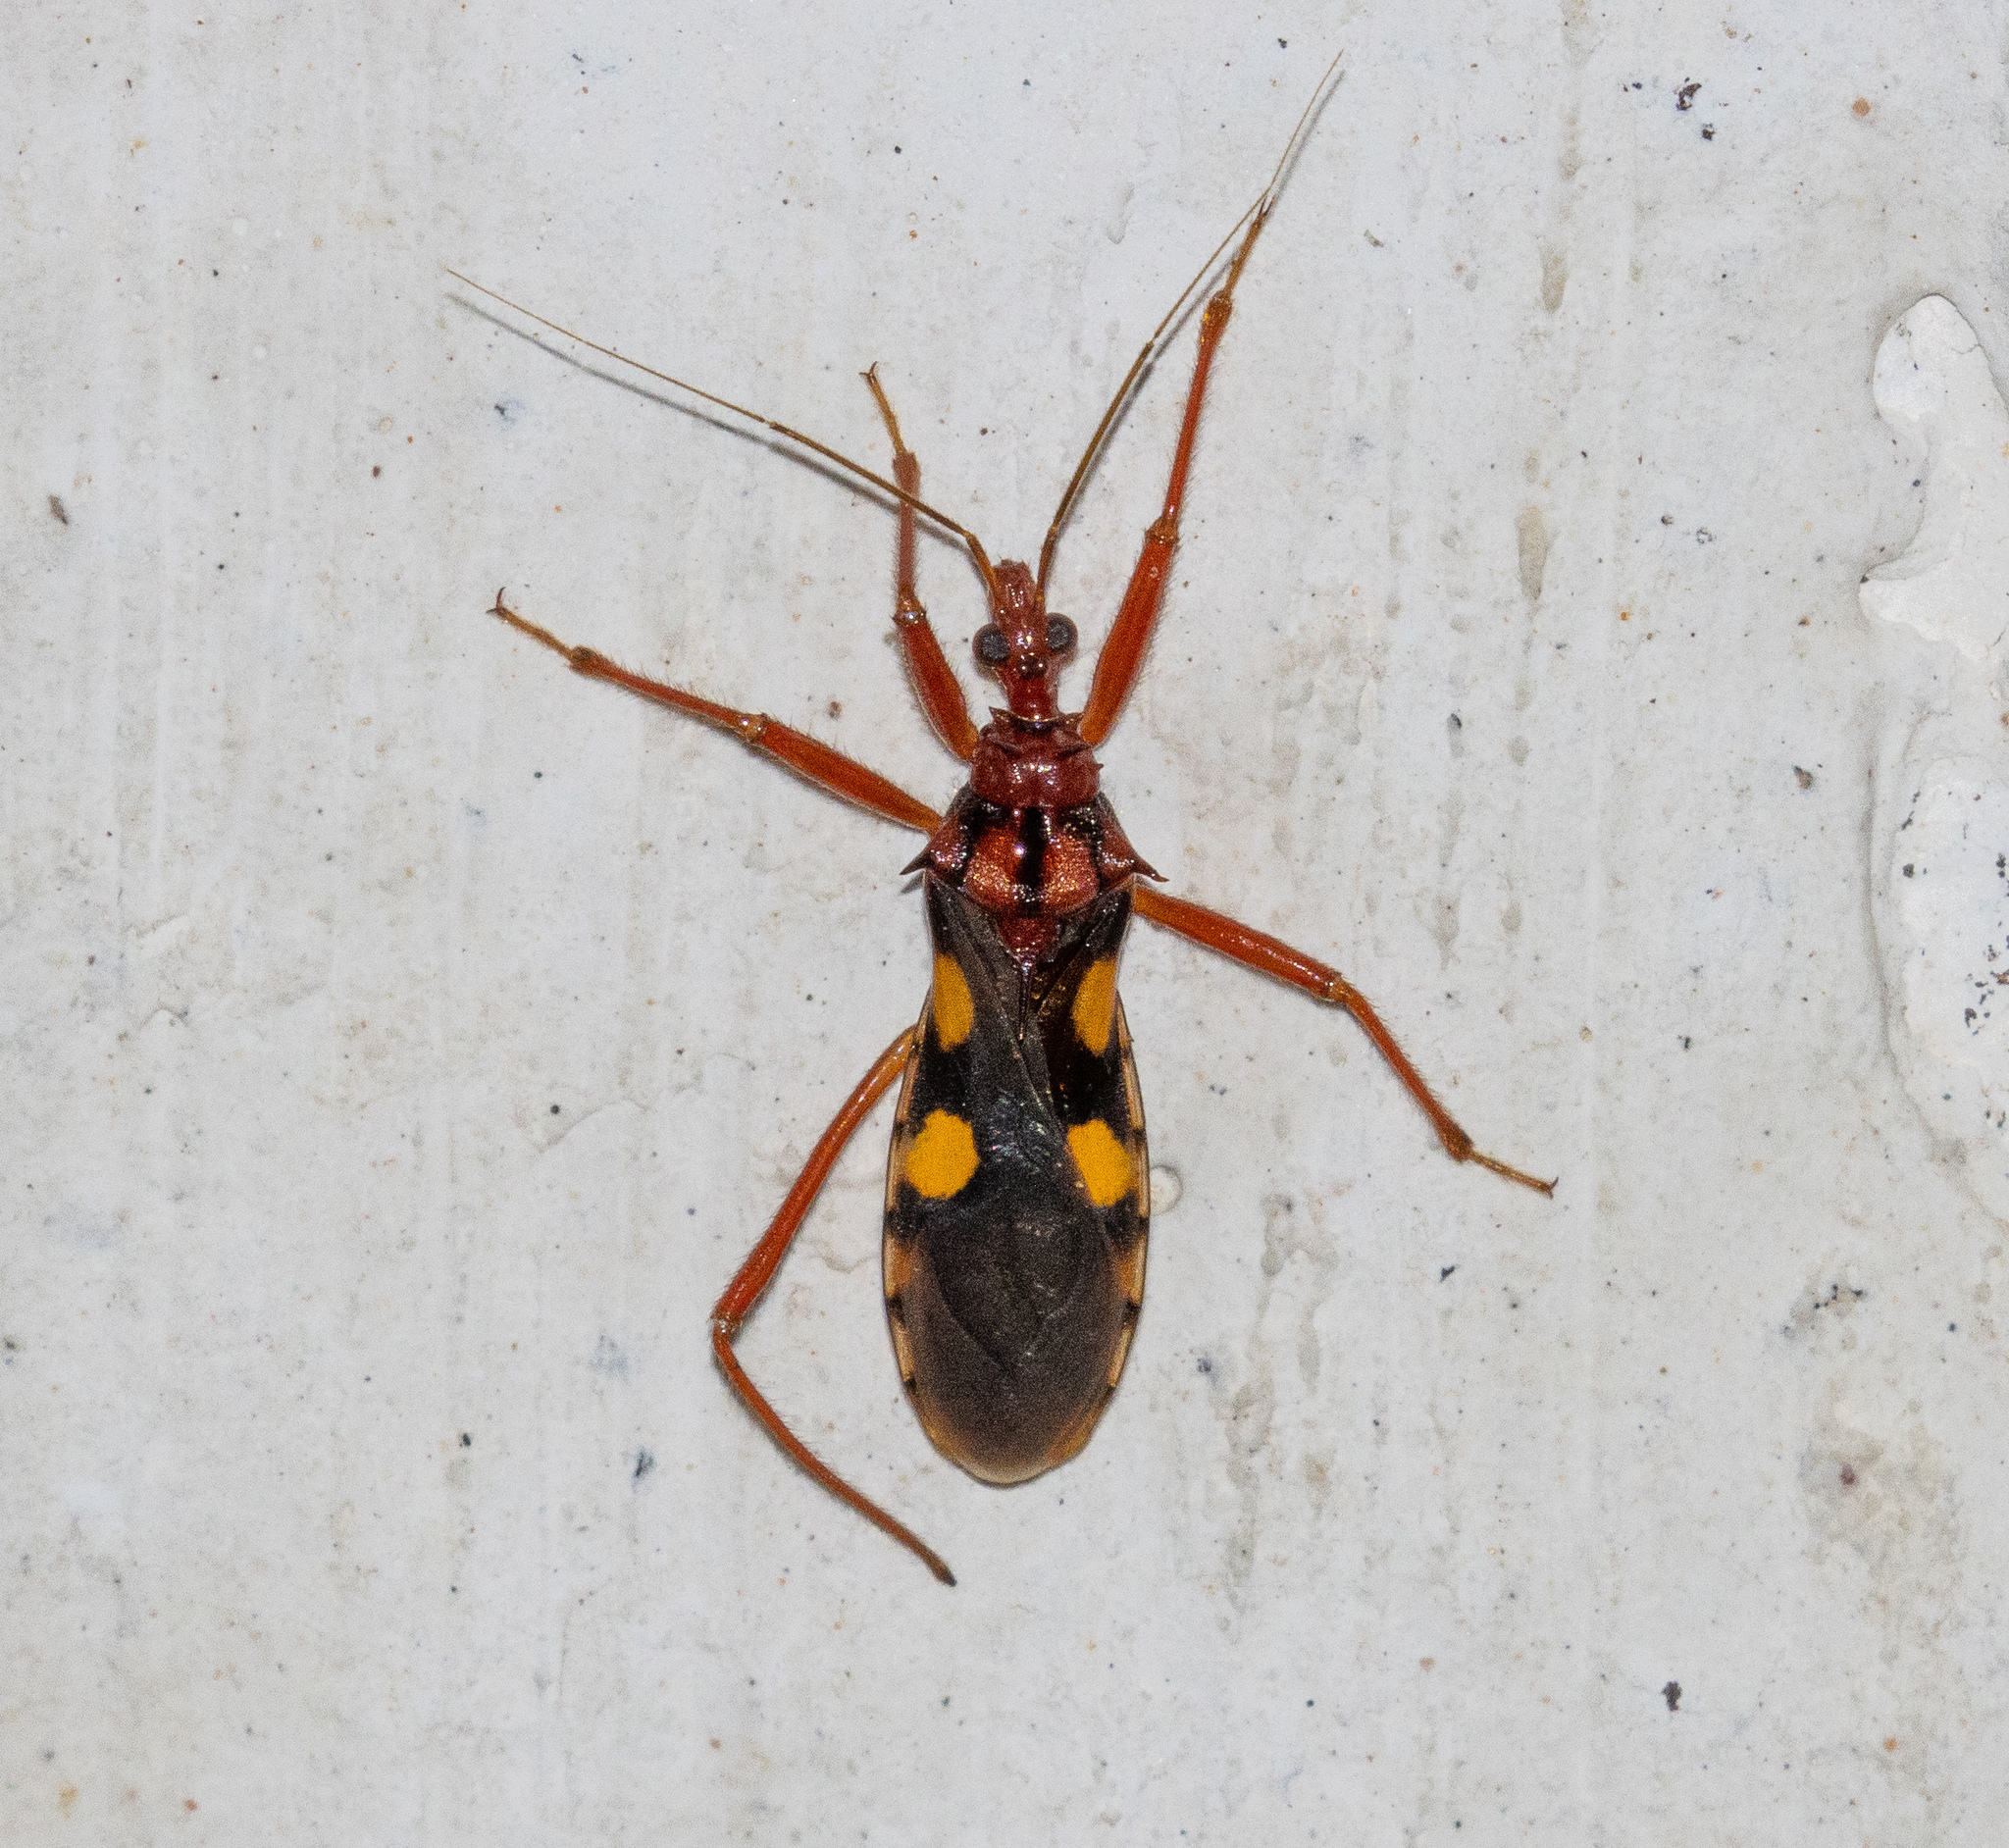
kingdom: Animalia
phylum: Arthropoda
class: Insecta
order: Hemiptera
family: Reduviidae
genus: Zelurus
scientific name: Zelurus nigrolineatus
